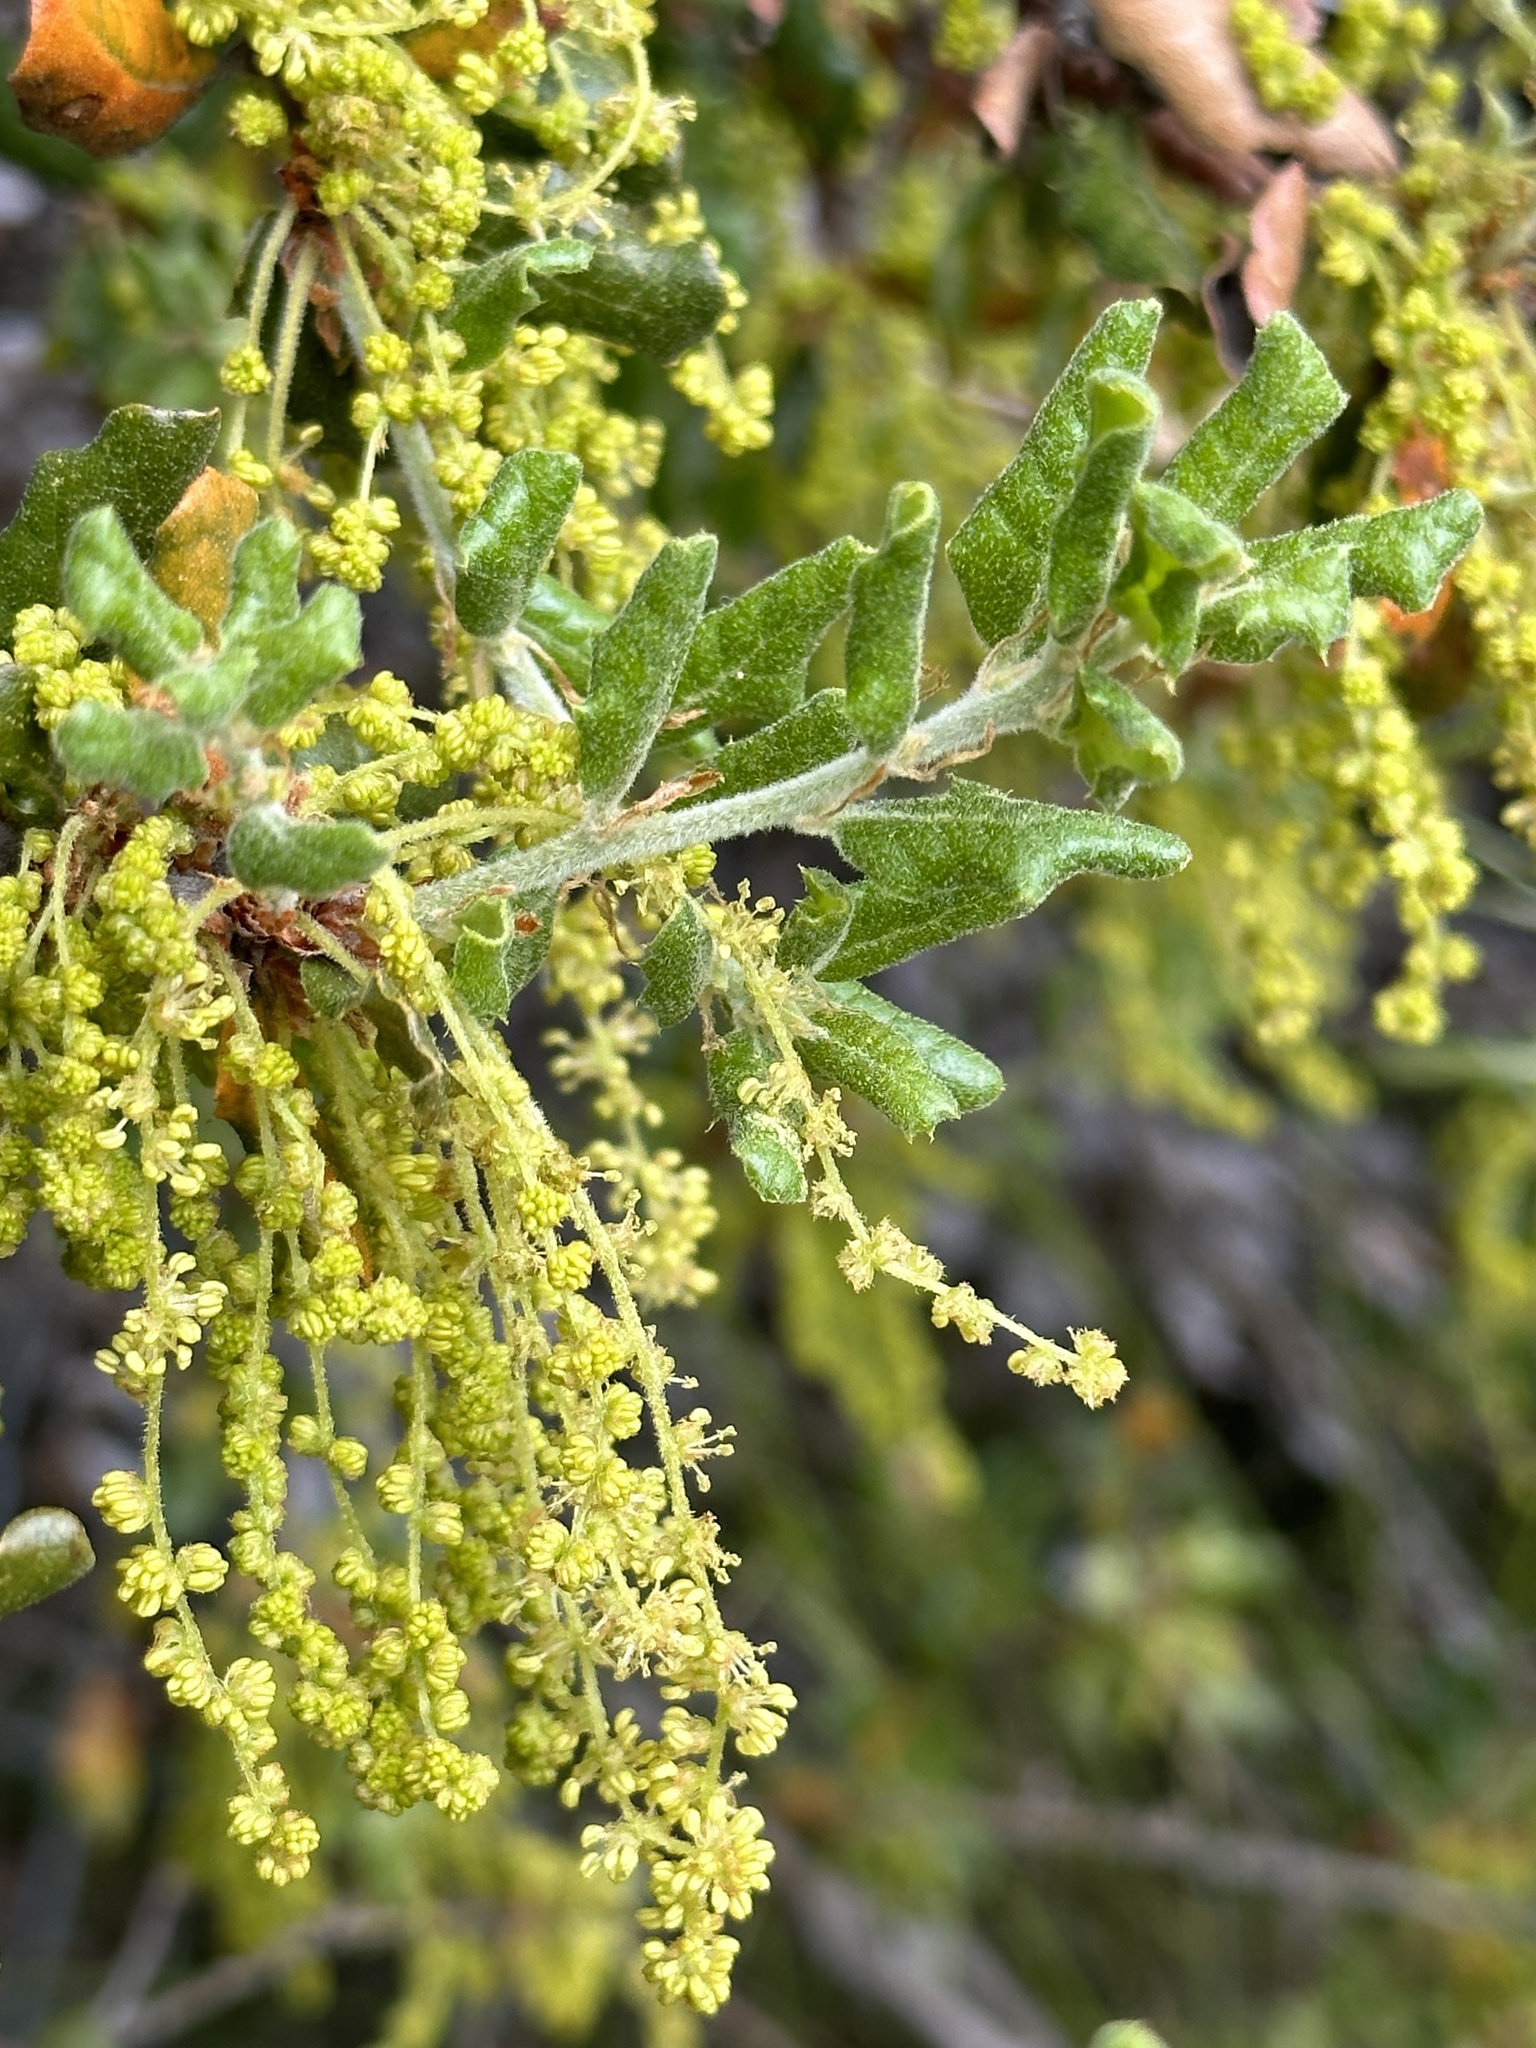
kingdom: Plantae
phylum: Tracheophyta
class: Magnoliopsida
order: Fagales
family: Fagaceae
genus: Quercus
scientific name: Quercus durata
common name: Leather oak
